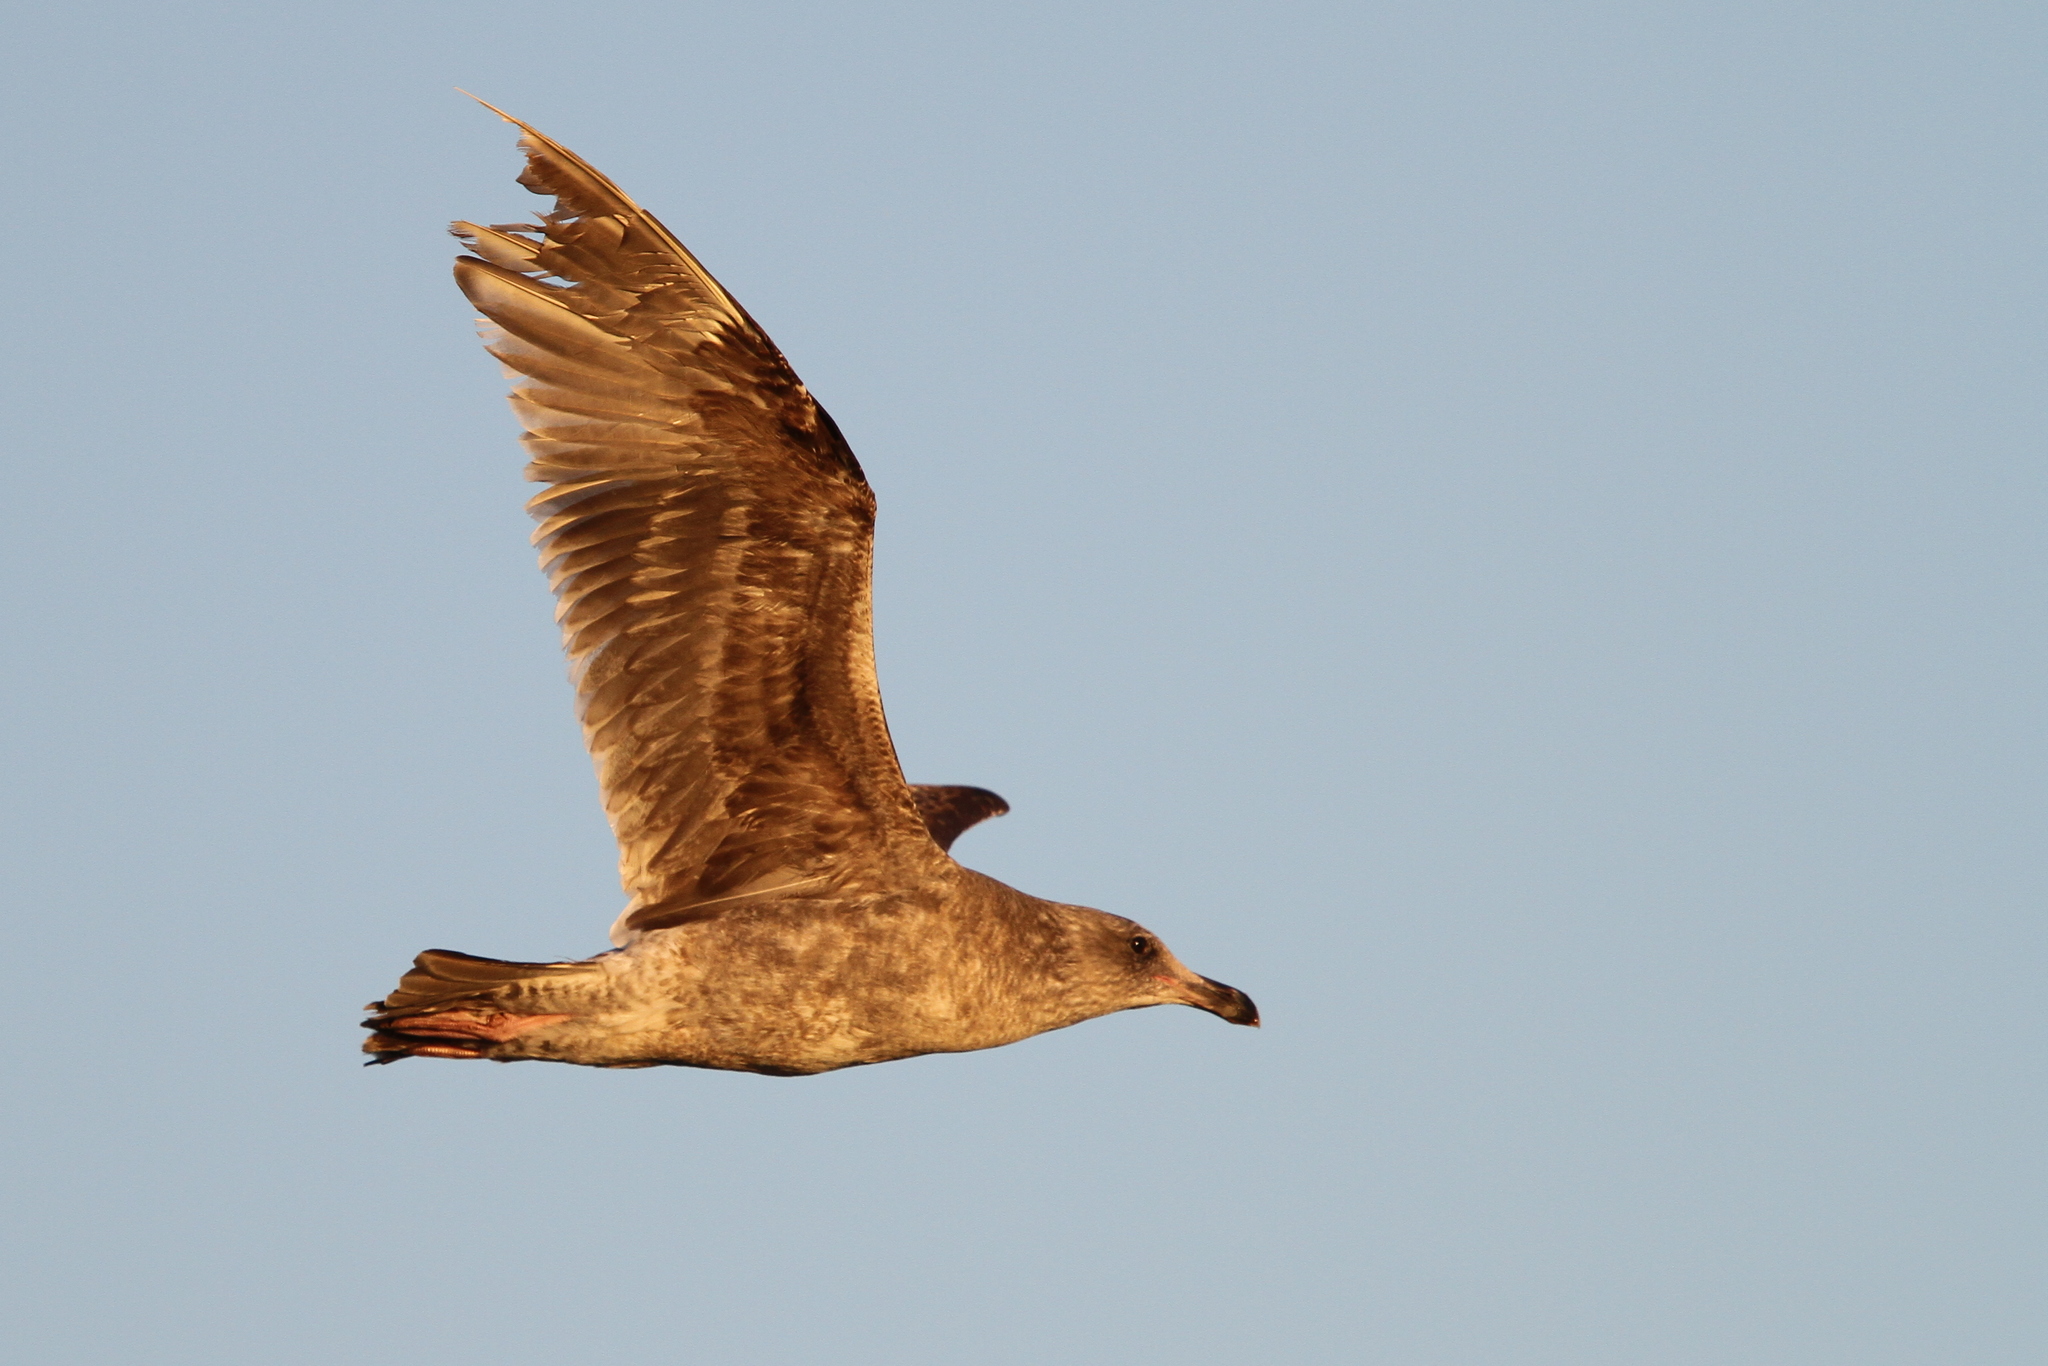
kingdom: Animalia
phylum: Chordata
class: Aves
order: Charadriiformes
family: Laridae
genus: Larus
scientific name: Larus occidentalis
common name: Western gull
